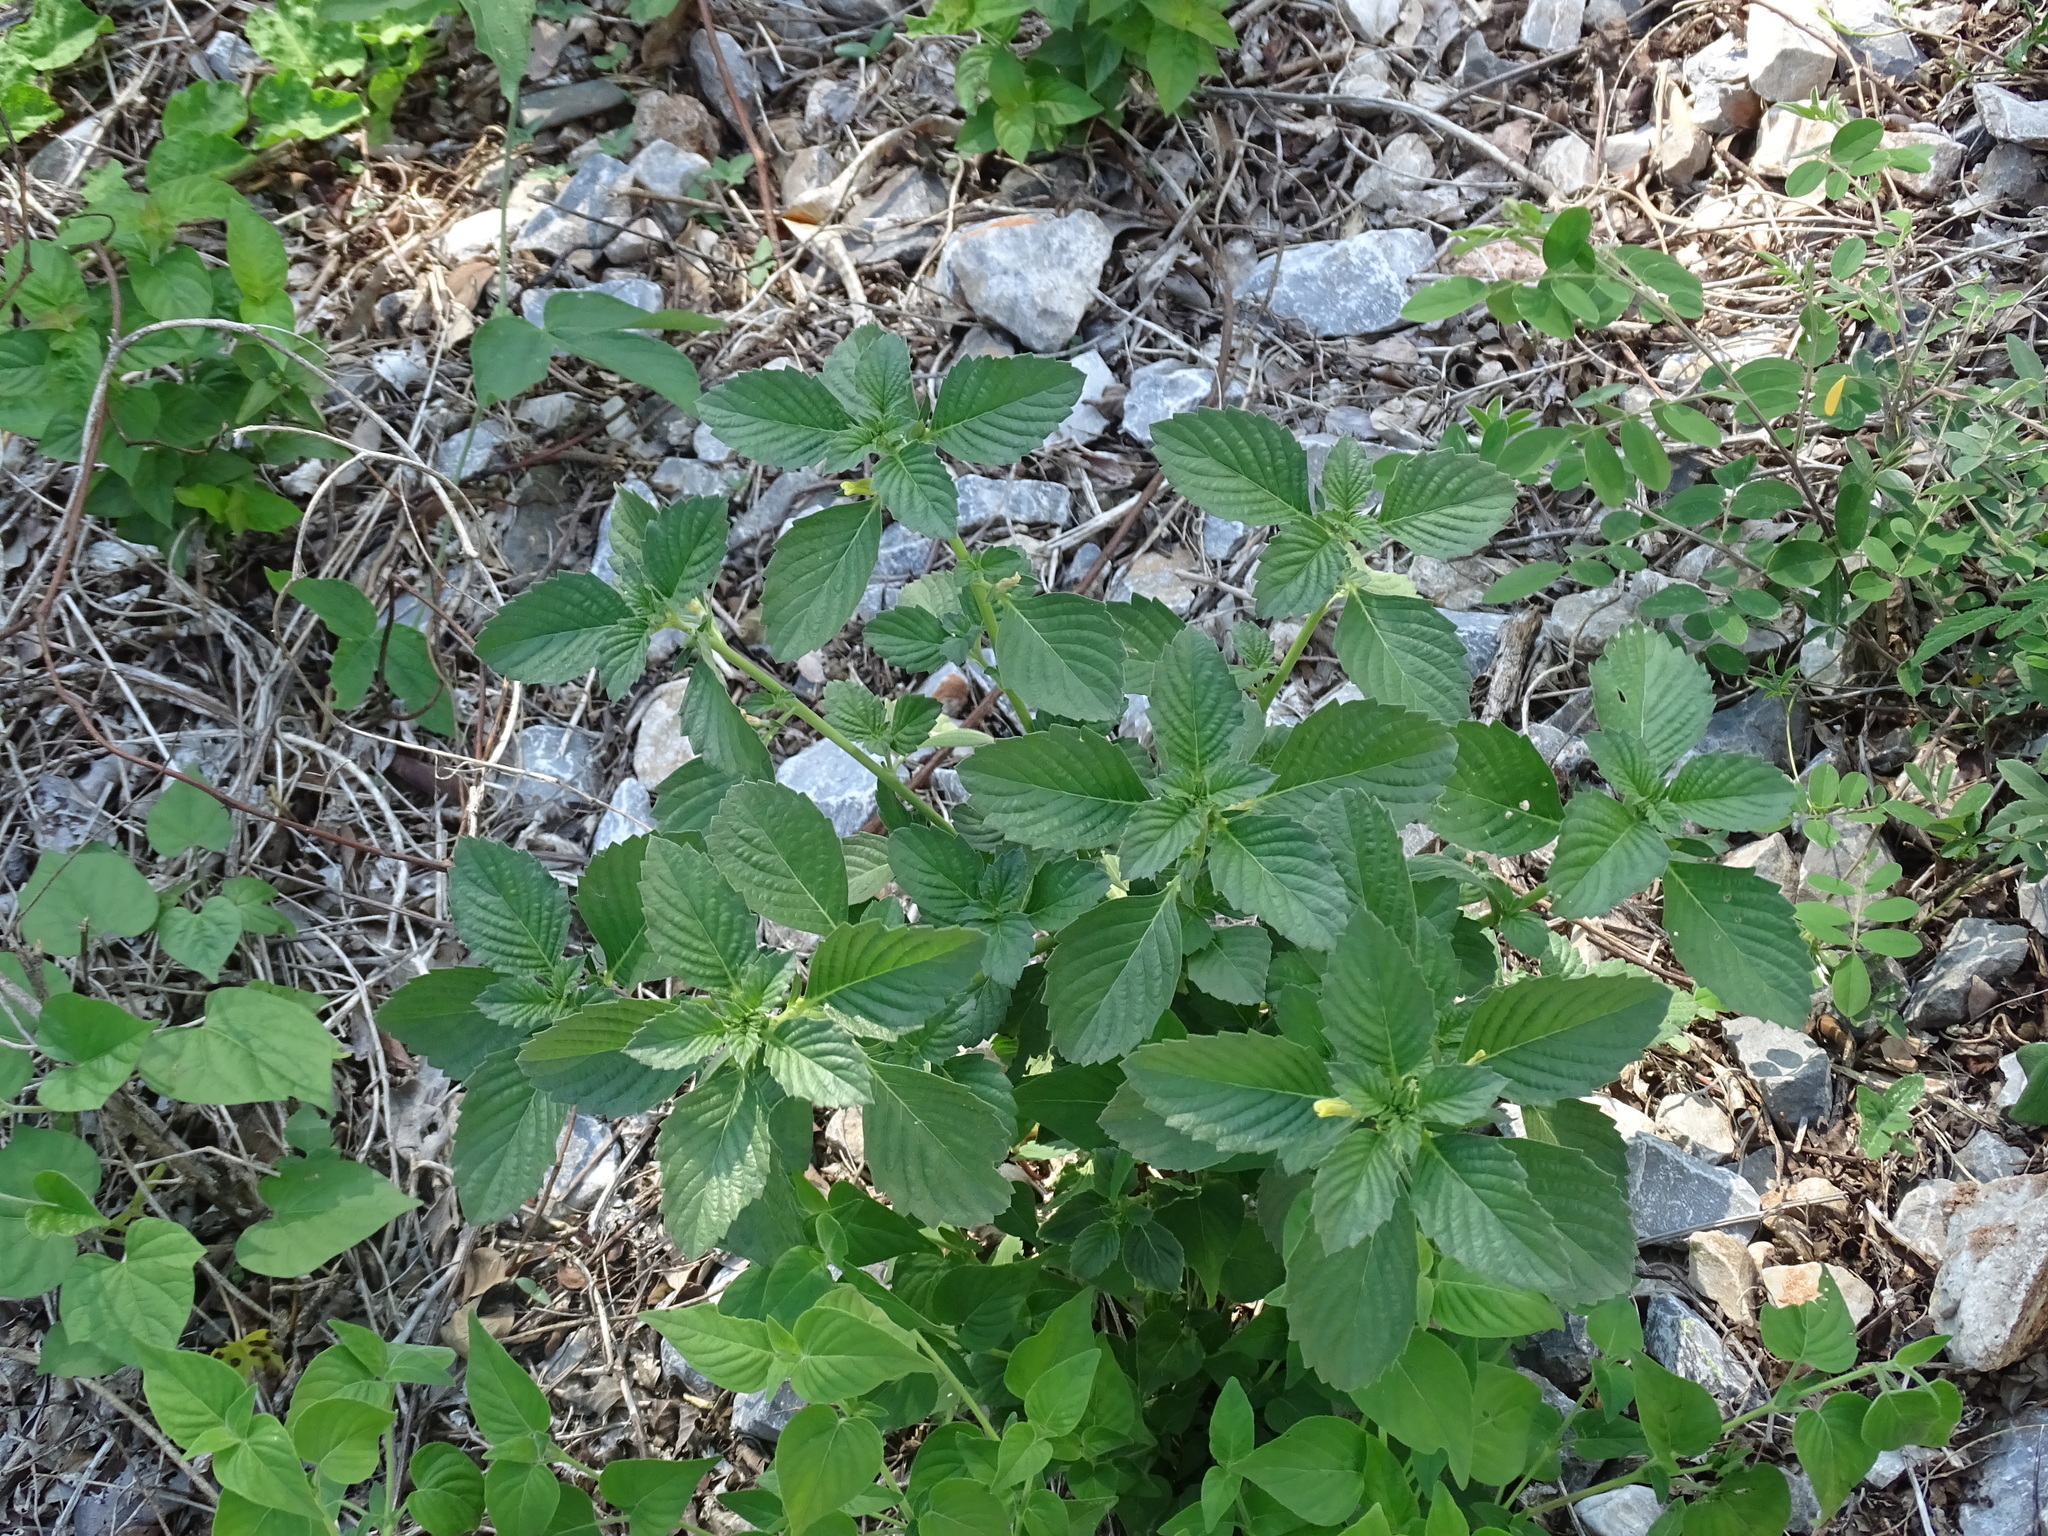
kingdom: Plantae
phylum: Tracheophyta
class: Magnoliopsida
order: Malpighiales
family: Turneraceae
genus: Turnera
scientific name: Turnera velutina
